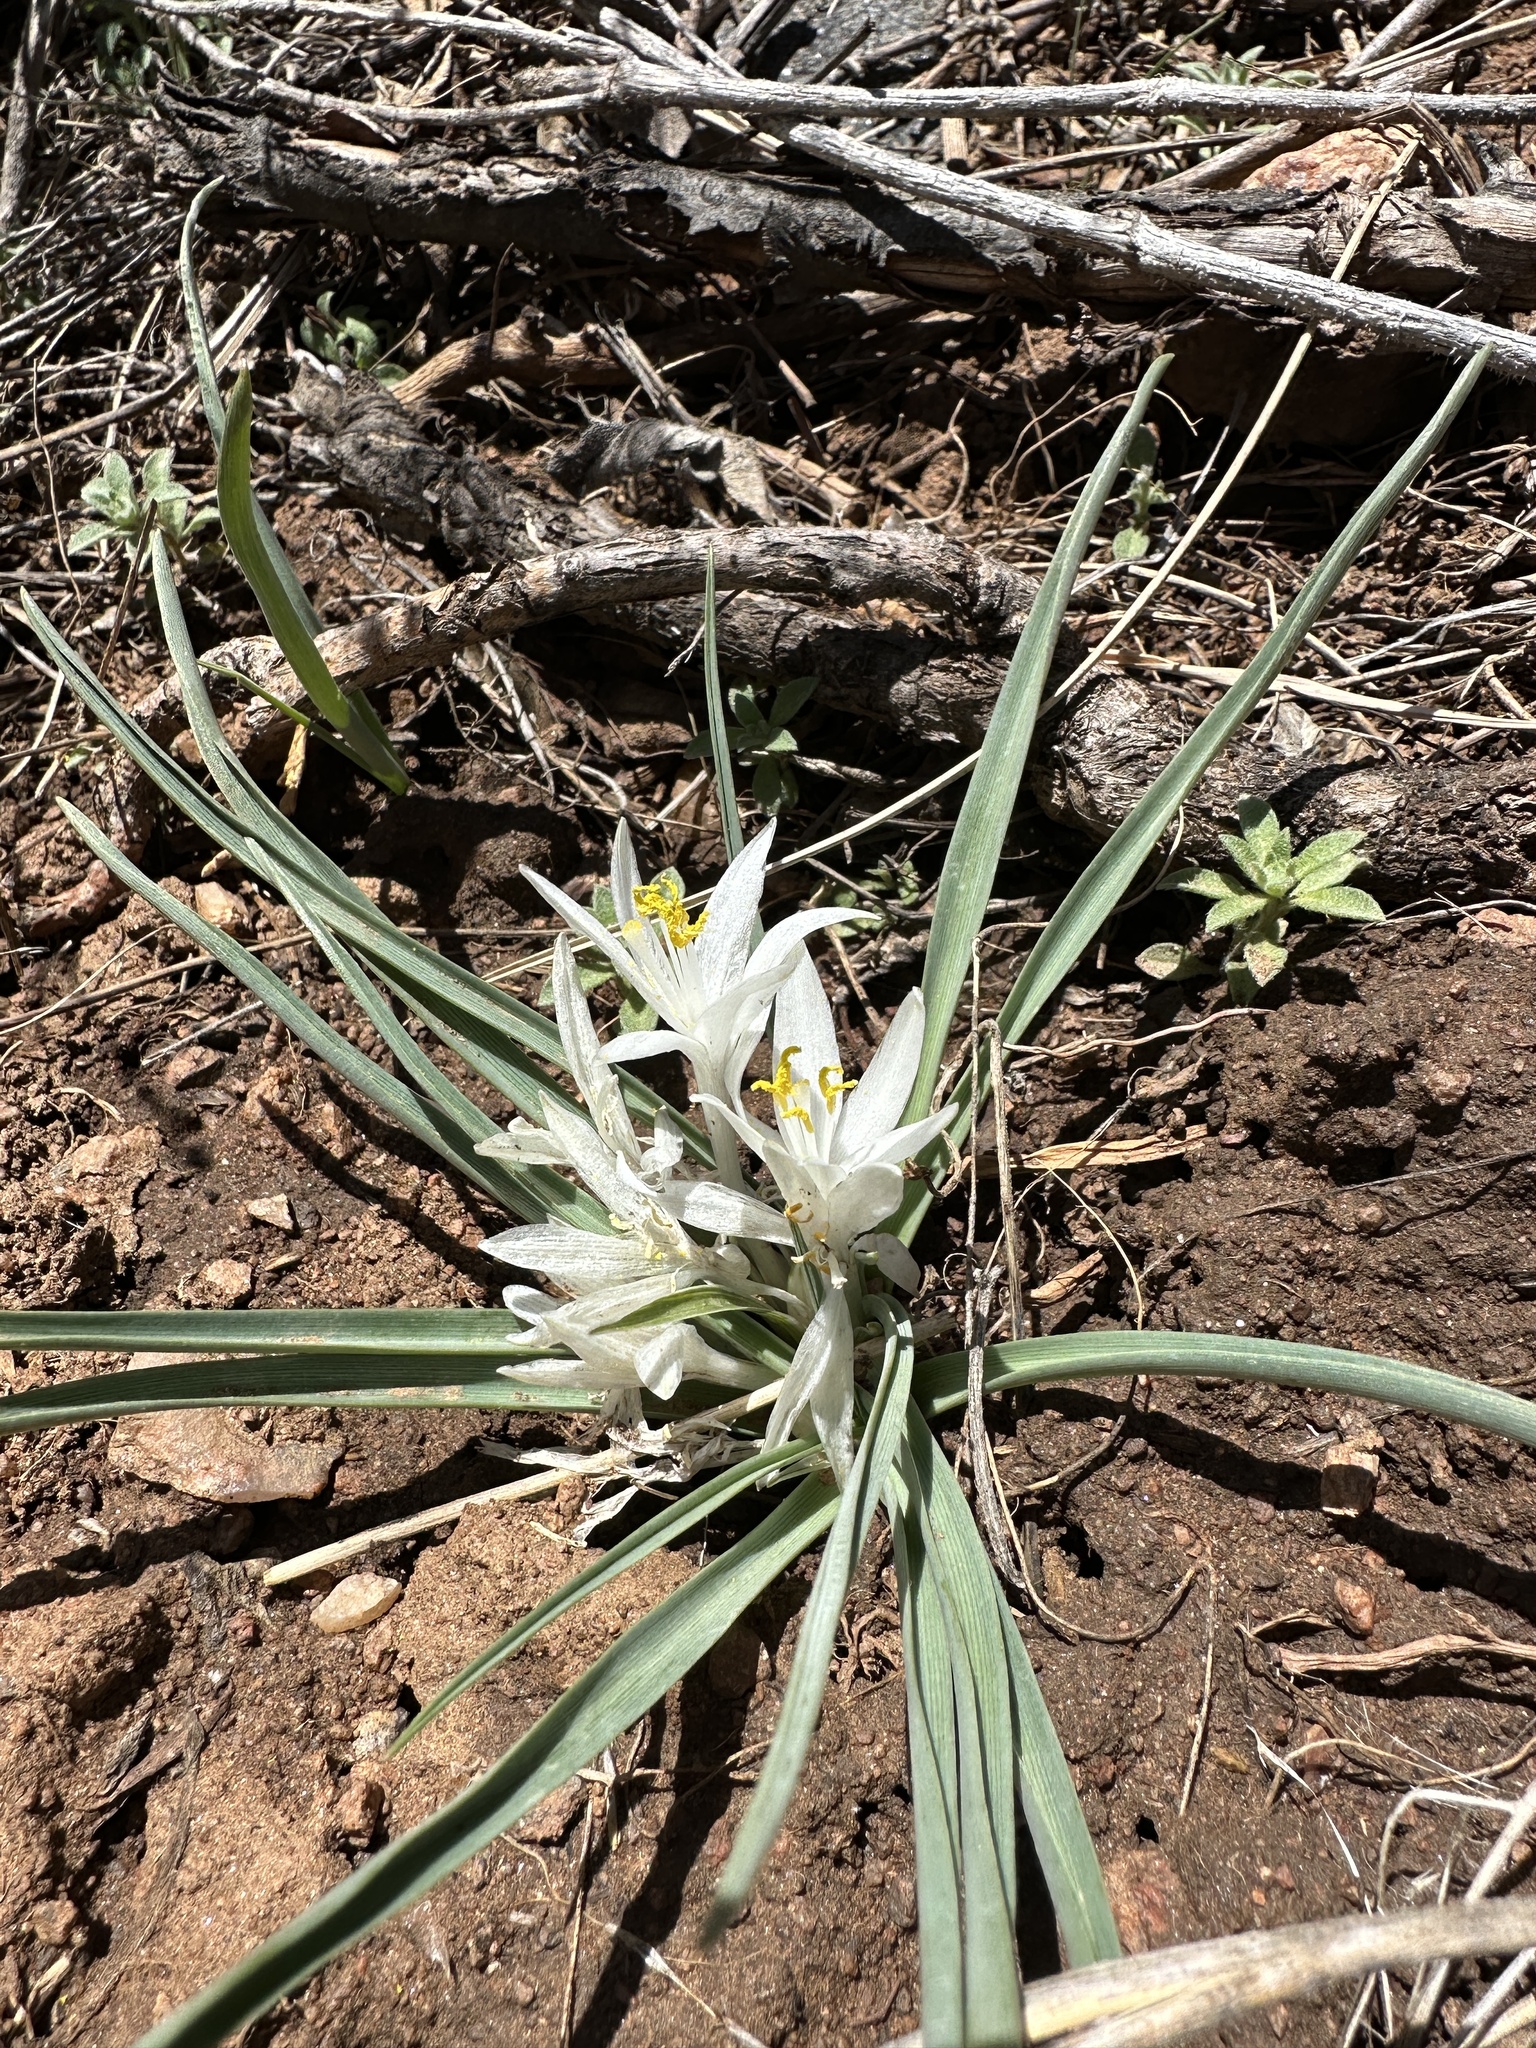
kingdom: Plantae
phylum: Tracheophyta
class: Liliopsida
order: Asparagales
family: Asparagaceae
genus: Leucocrinum
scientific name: Leucocrinum montanum
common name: Mountain-lily
